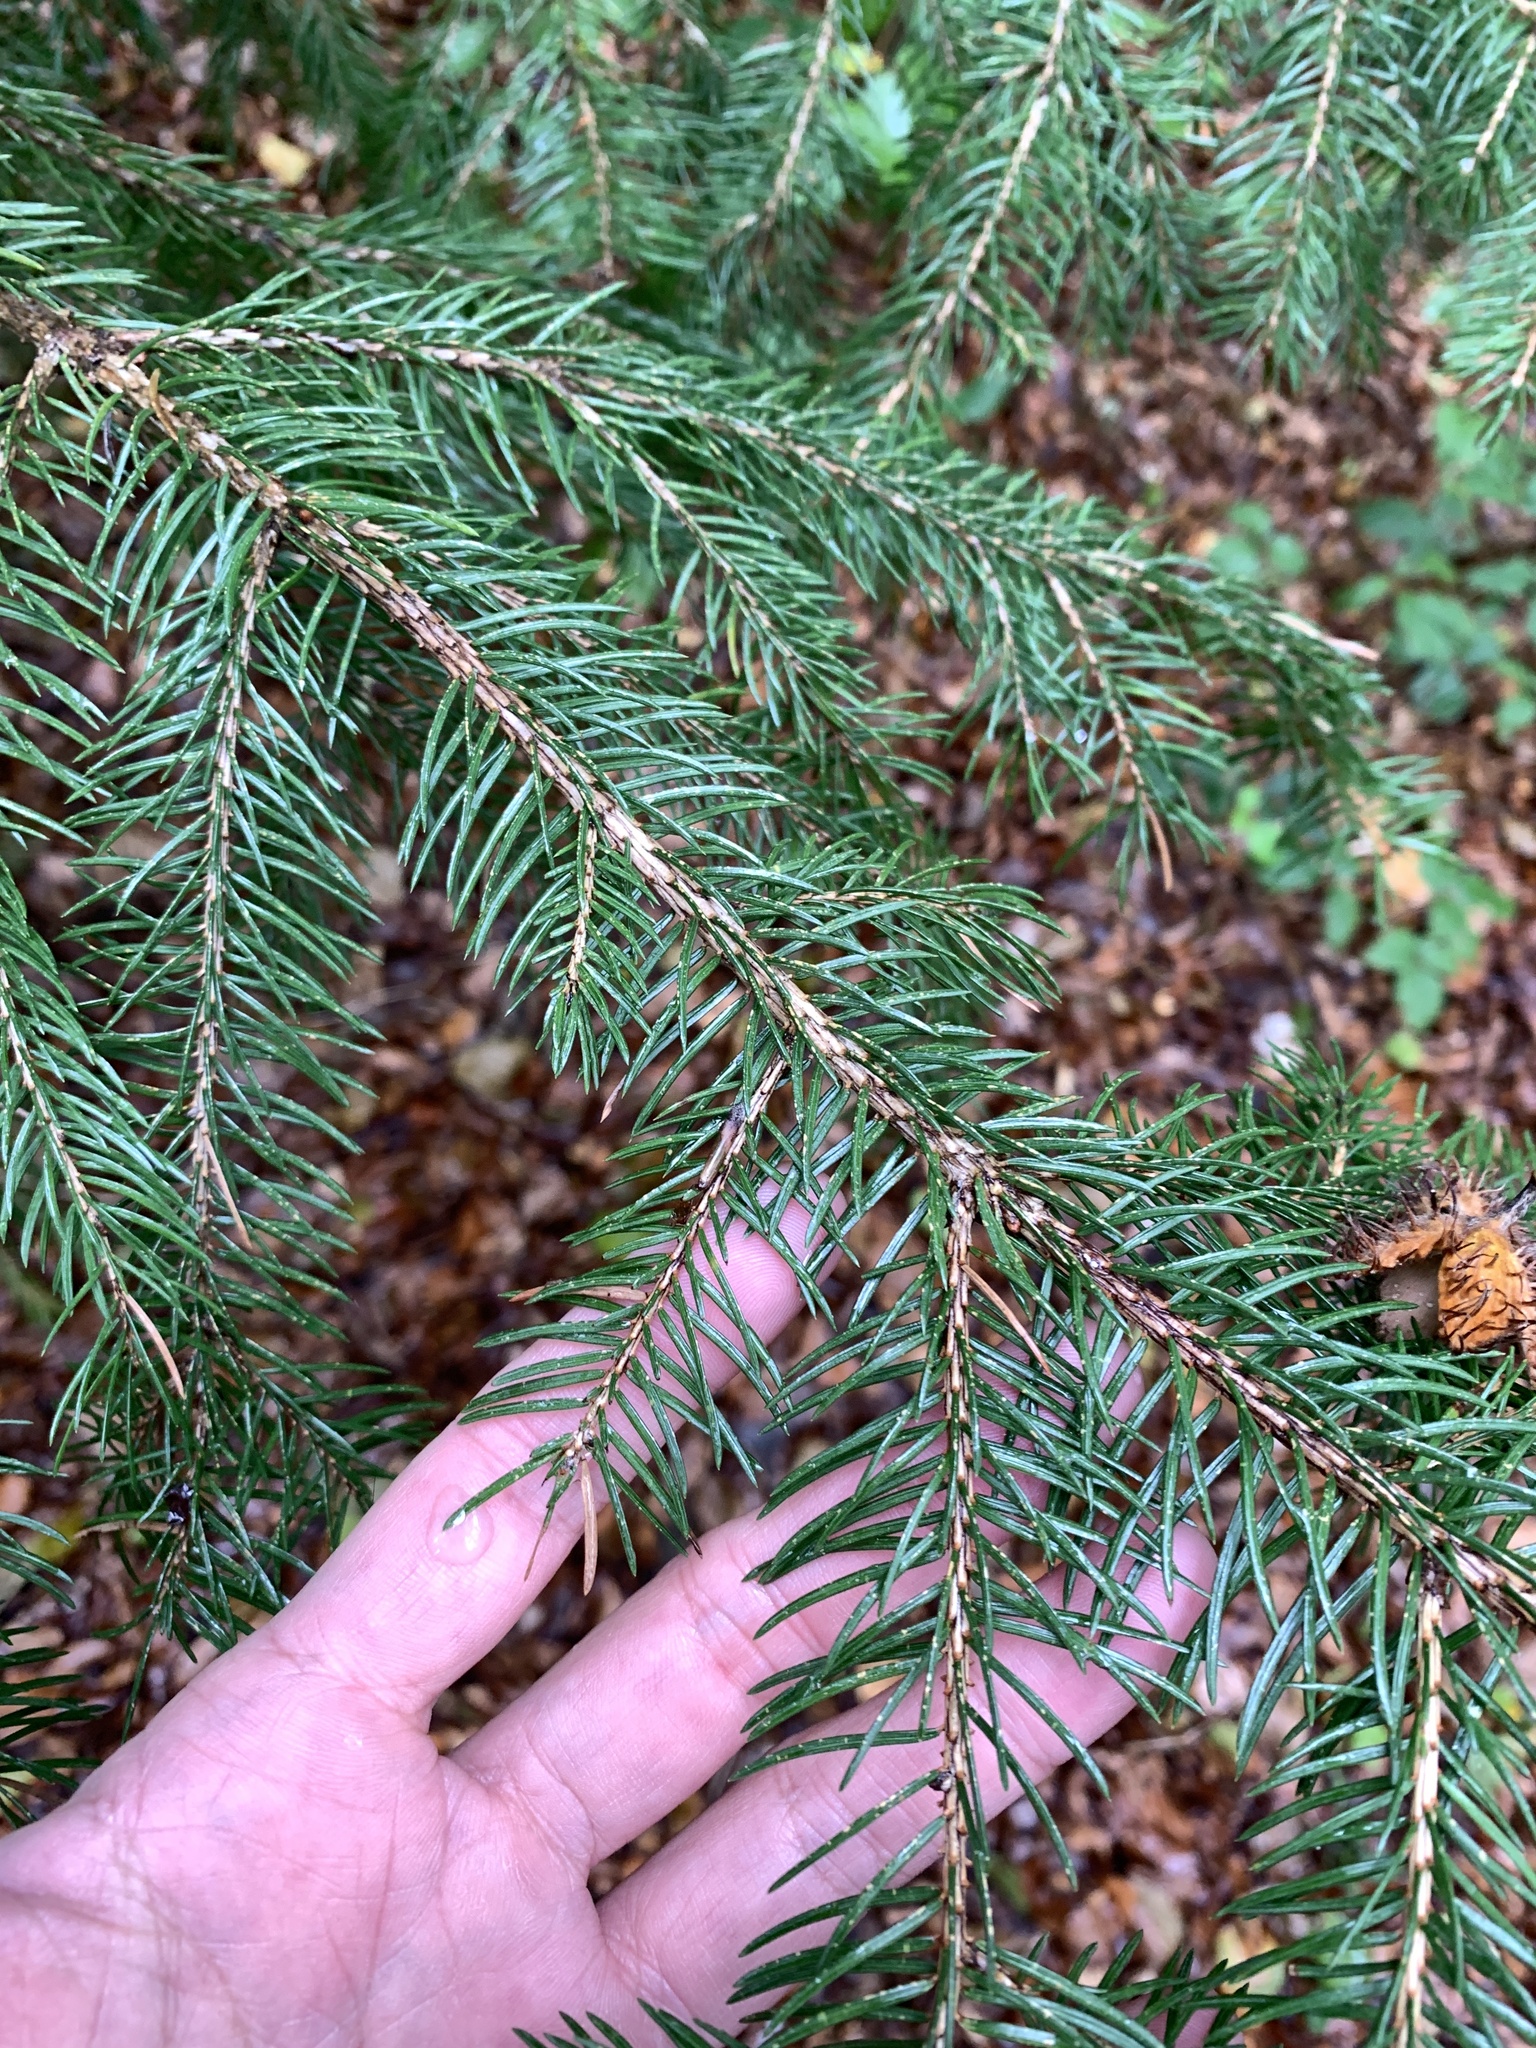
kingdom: Plantae
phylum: Tracheophyta
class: Pinopsida
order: Pinales
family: Pinaceae
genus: Picea
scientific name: Picea abies
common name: Norway spruce
